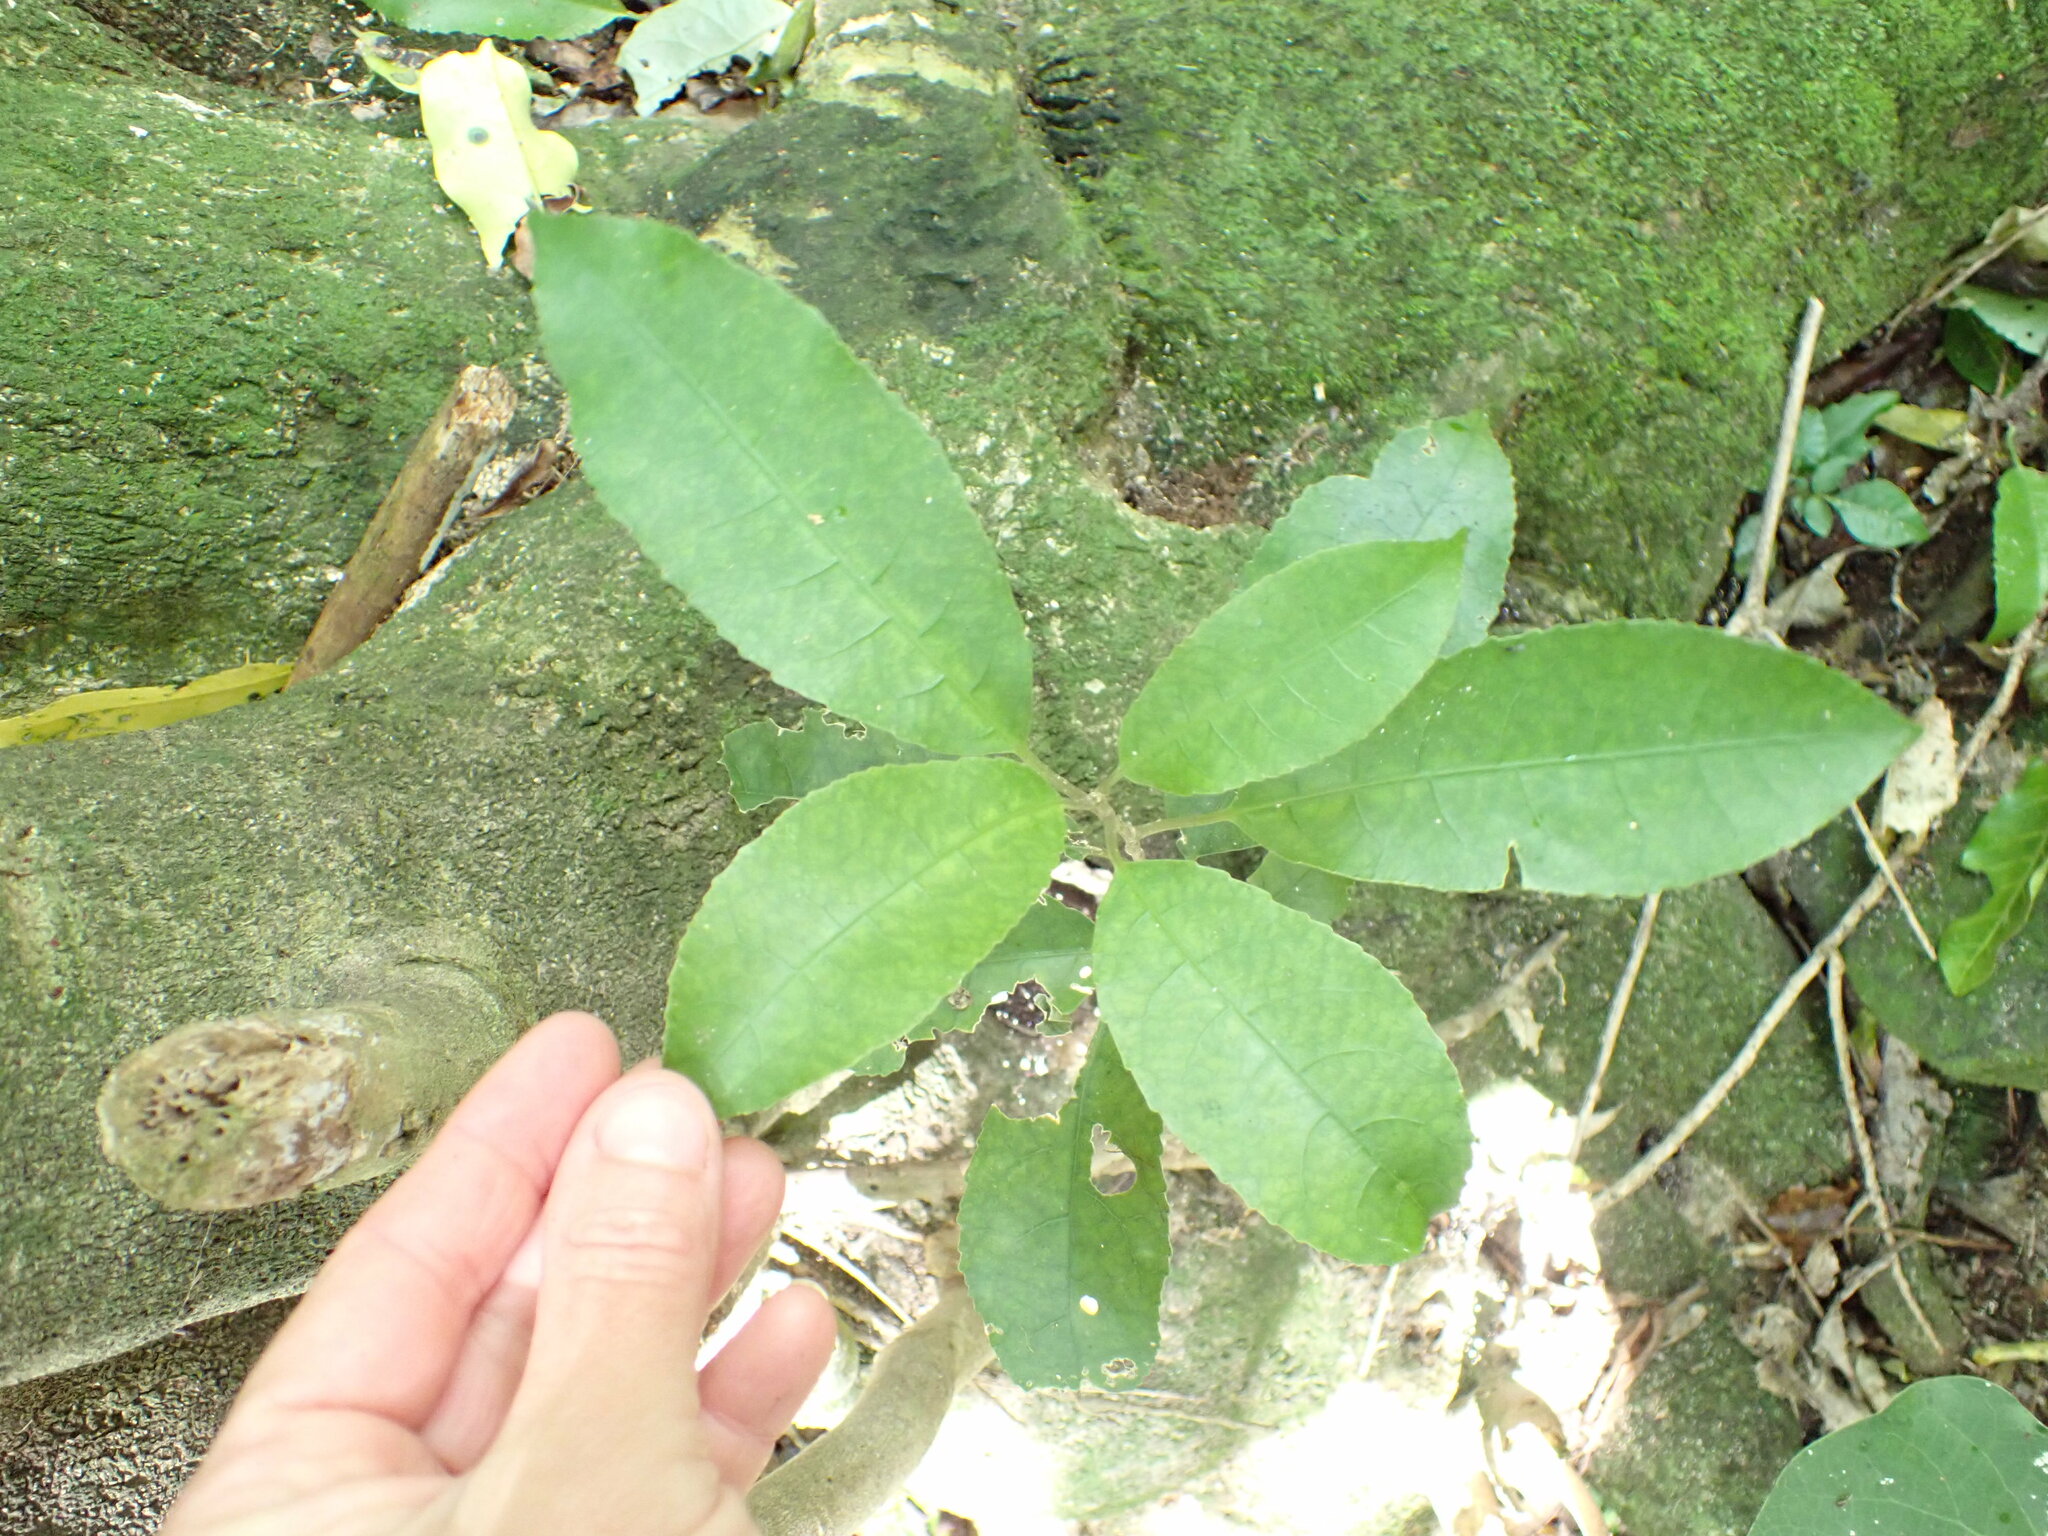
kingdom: Plantae
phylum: Tracheophyta
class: Magnoliopsida
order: Malpighiales
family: Violaceae
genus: Melicytus
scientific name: Melicytus ramiflorus
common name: Mahoe
